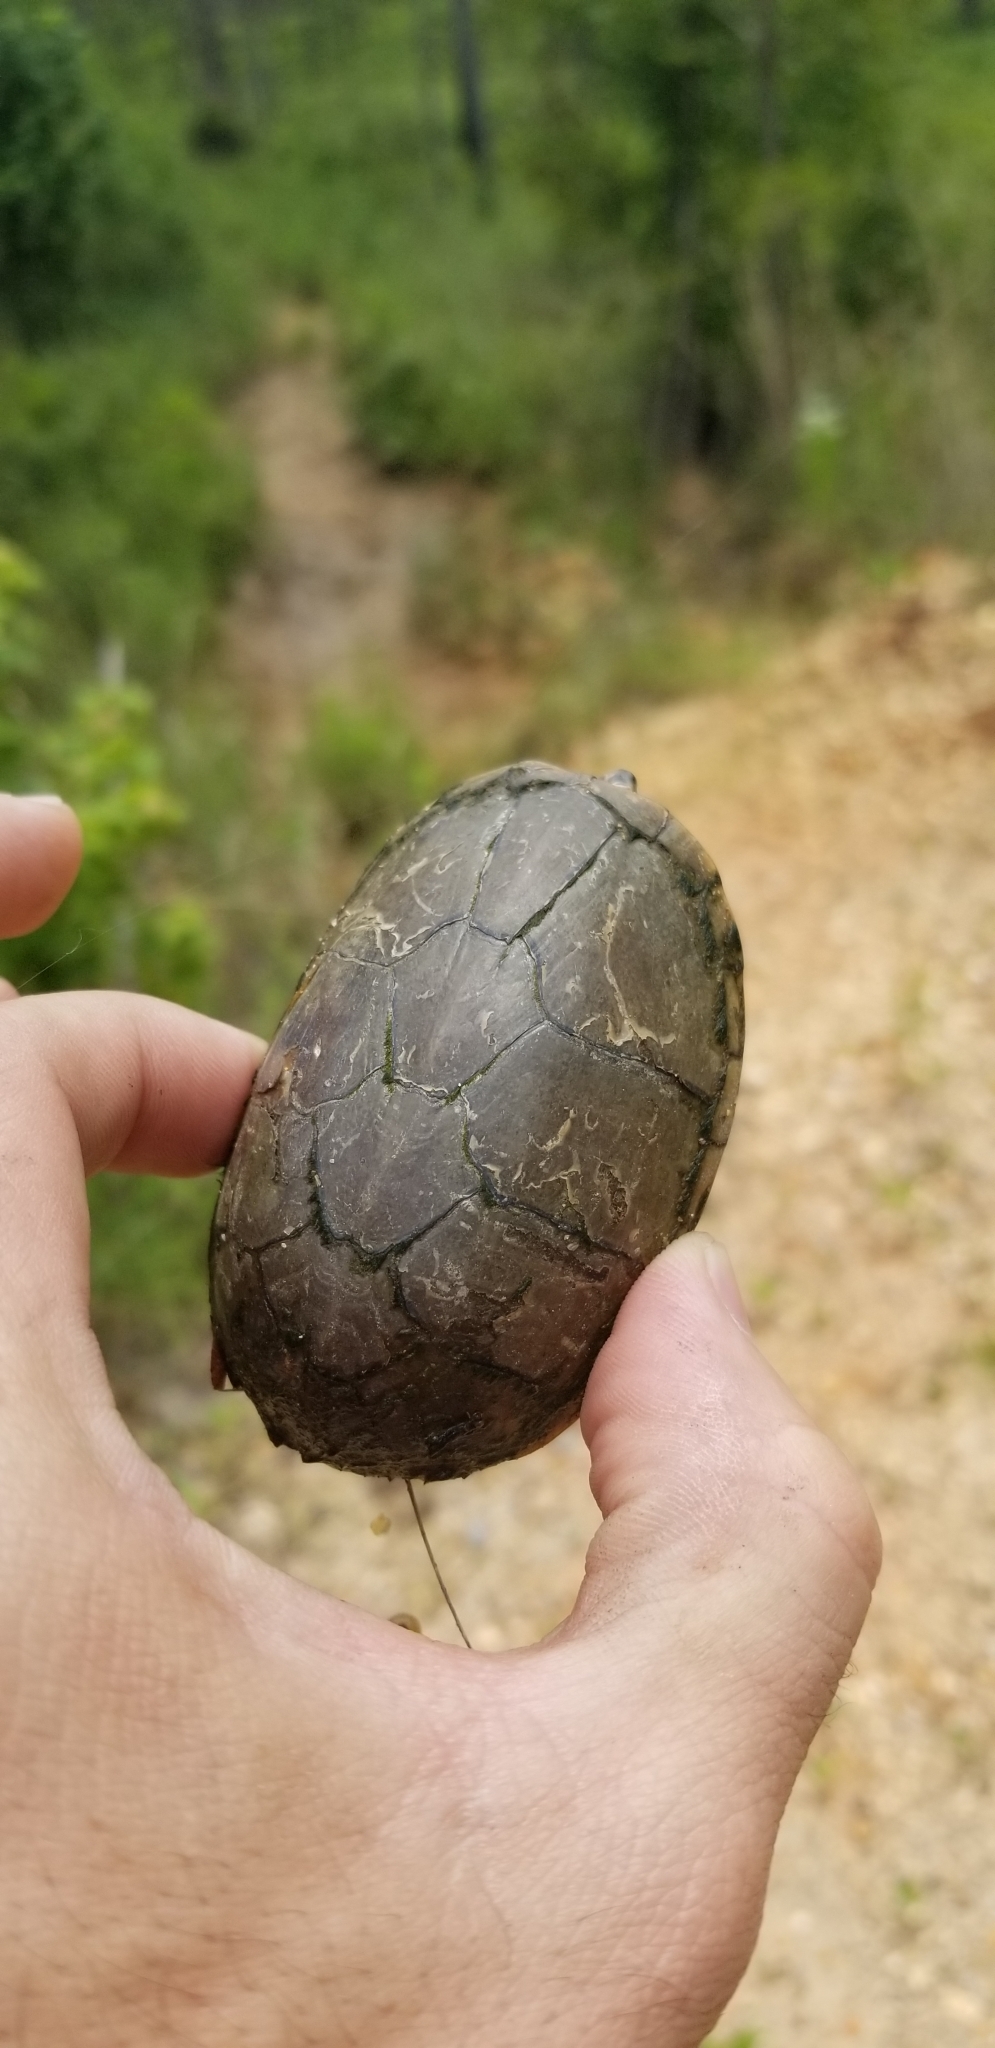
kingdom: Animalia
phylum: Chordata
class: Testudines
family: Kinosternidae
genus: Kinosternon
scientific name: Kinosternon subrubrum
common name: Eastern mud turtle
